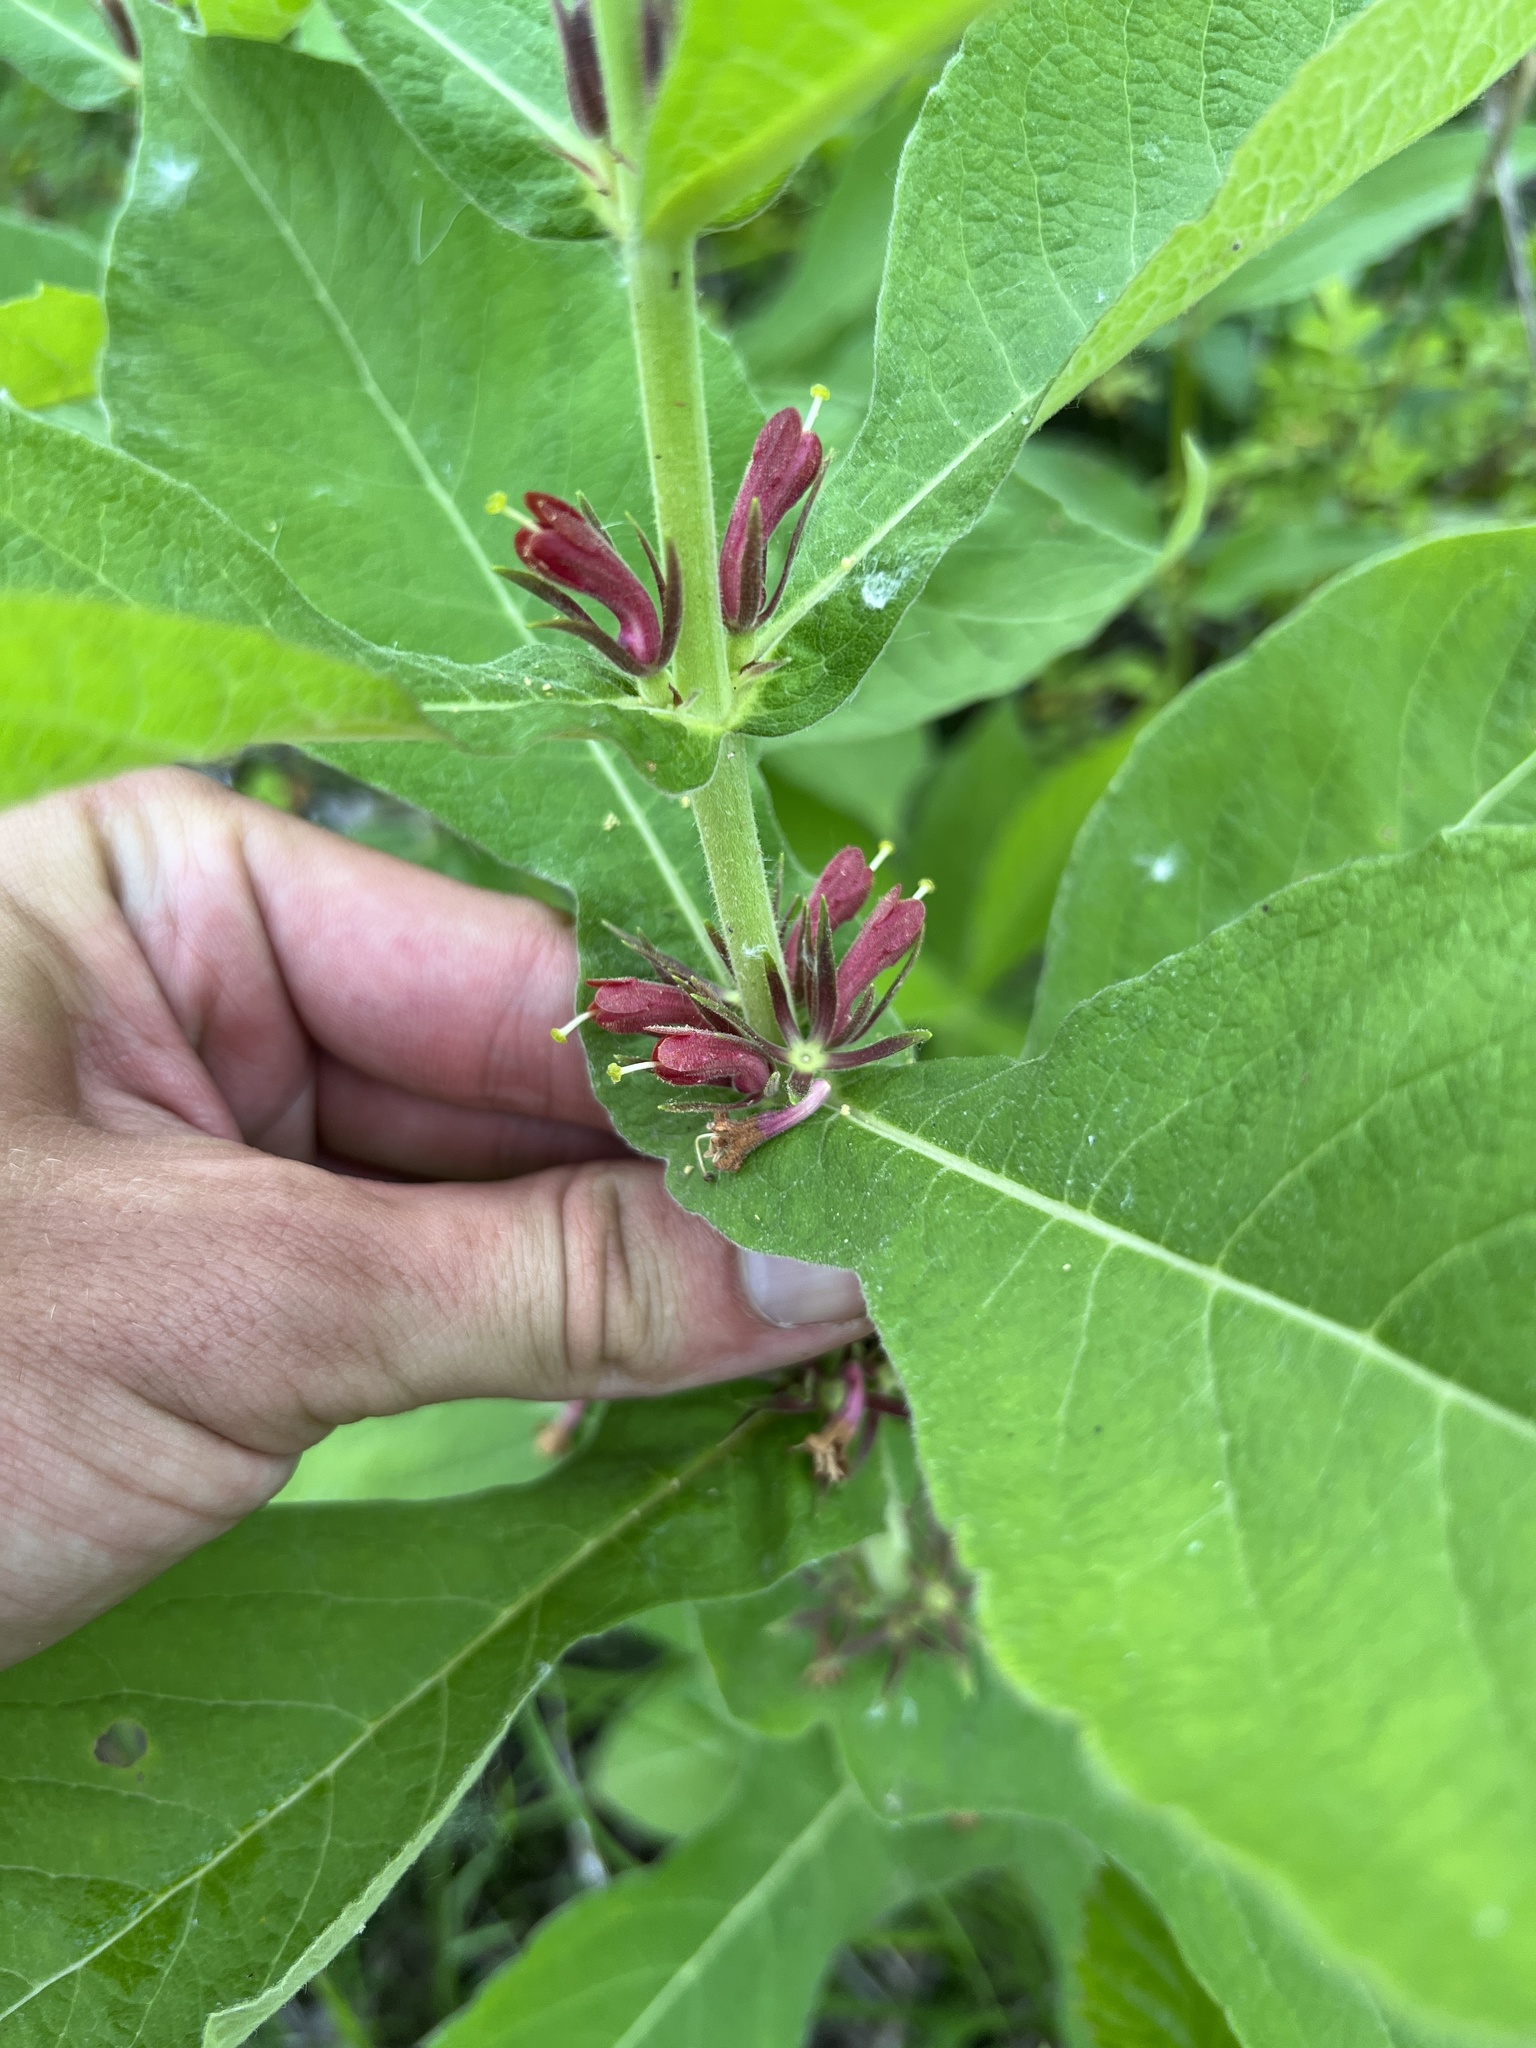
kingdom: Plantae
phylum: Tracheophyta
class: Magnoliopsida
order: Dipsacales
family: Caprifoliaceae
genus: Triosteum
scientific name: Triosteum perfoliatum
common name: Common horse-gentian
